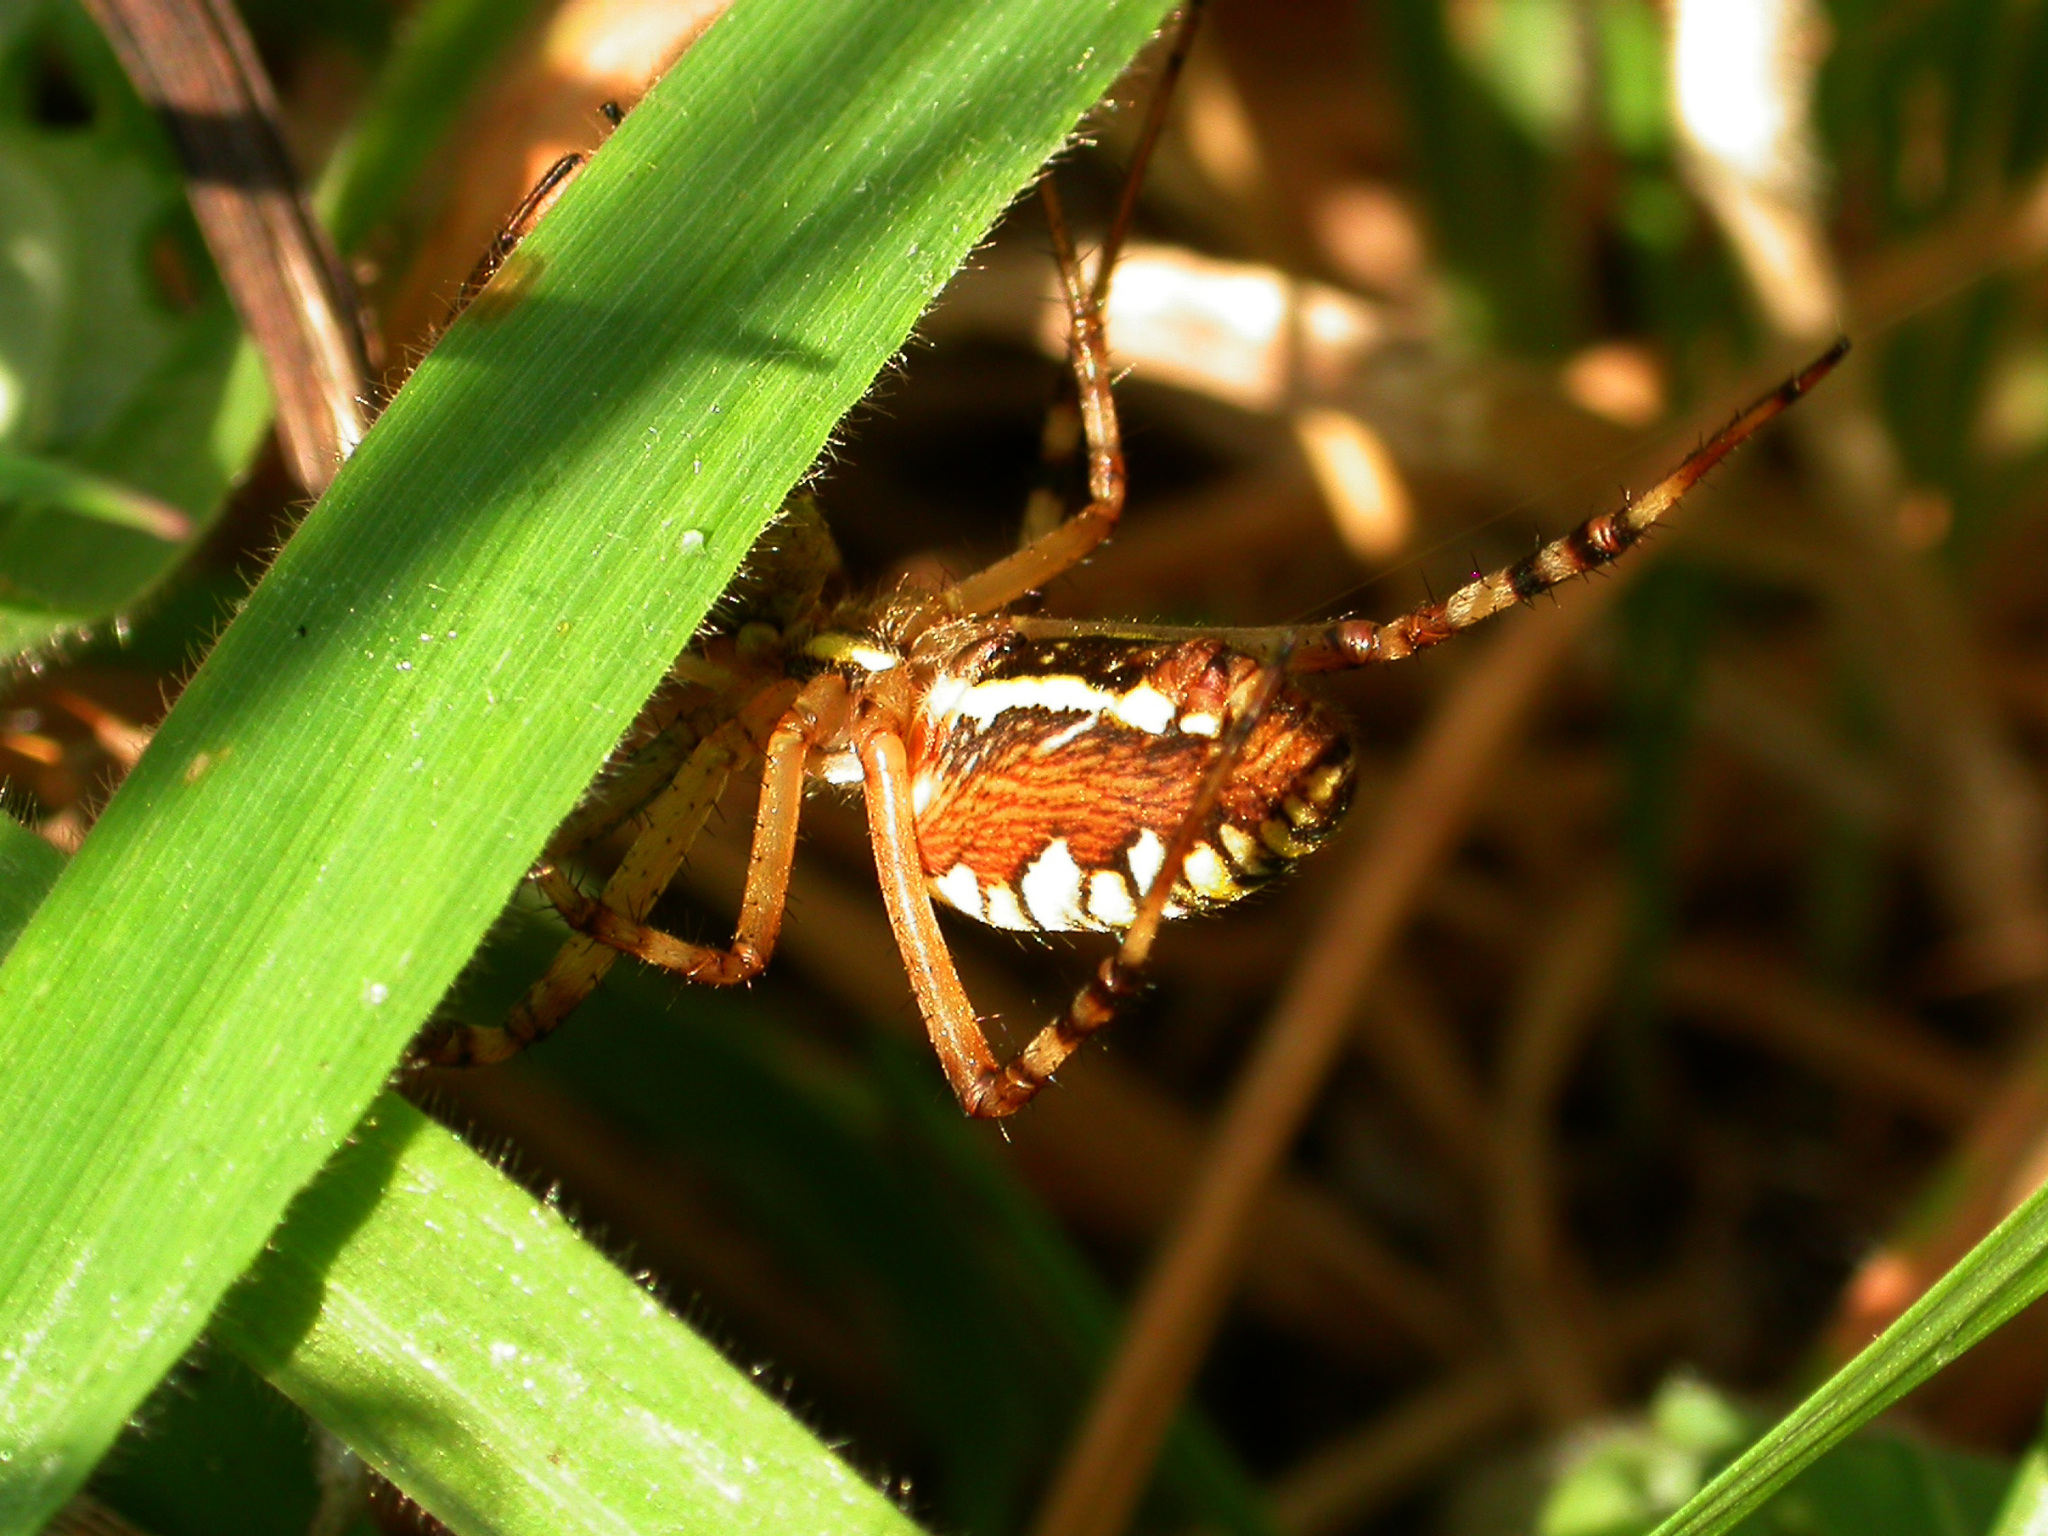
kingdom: Animalia
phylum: Arthropoda
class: Arachnida
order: Araneae
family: Araneidae
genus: Argiope
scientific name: Argiope bruennichi
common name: Wasp spider
